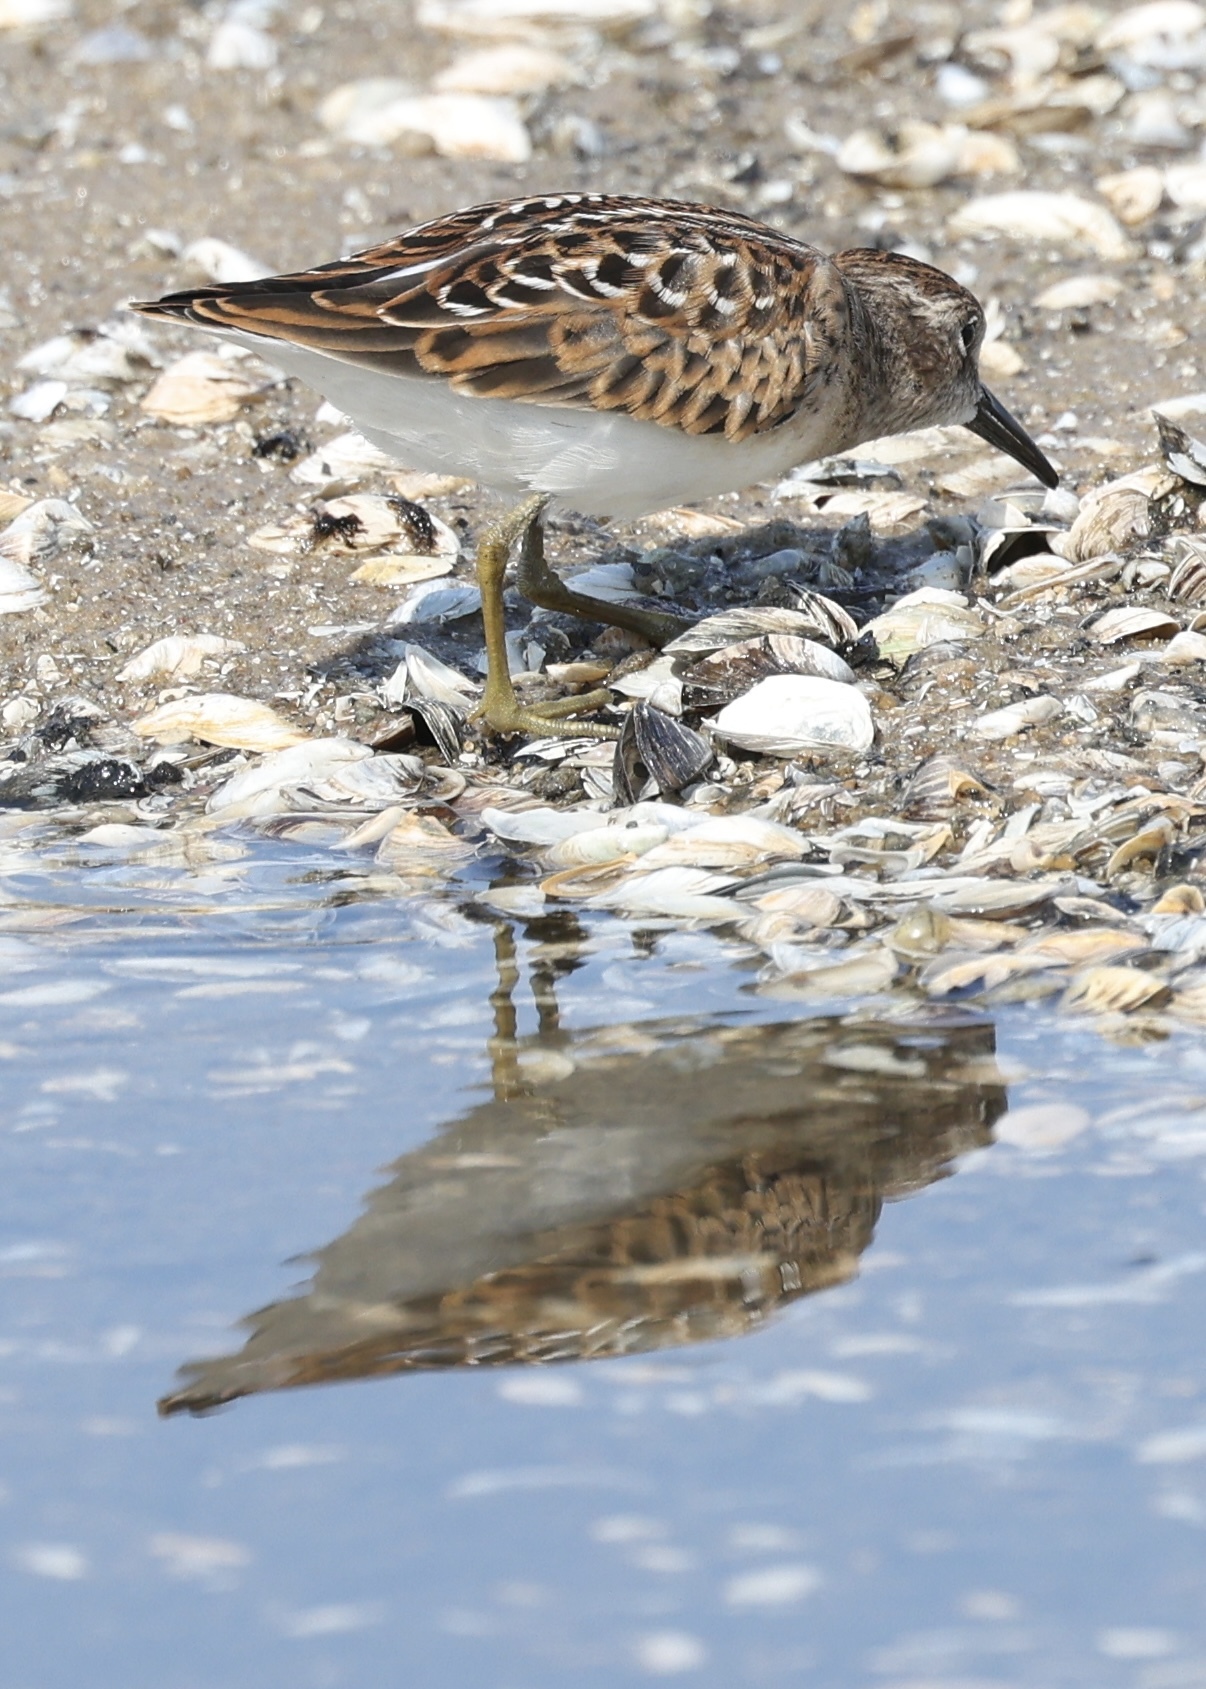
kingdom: Animalia
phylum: Chordata
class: Aves
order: Charadriiformes
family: Scolopacidae
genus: Calidris
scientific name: Calidris minutilla
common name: Least sandpiper
